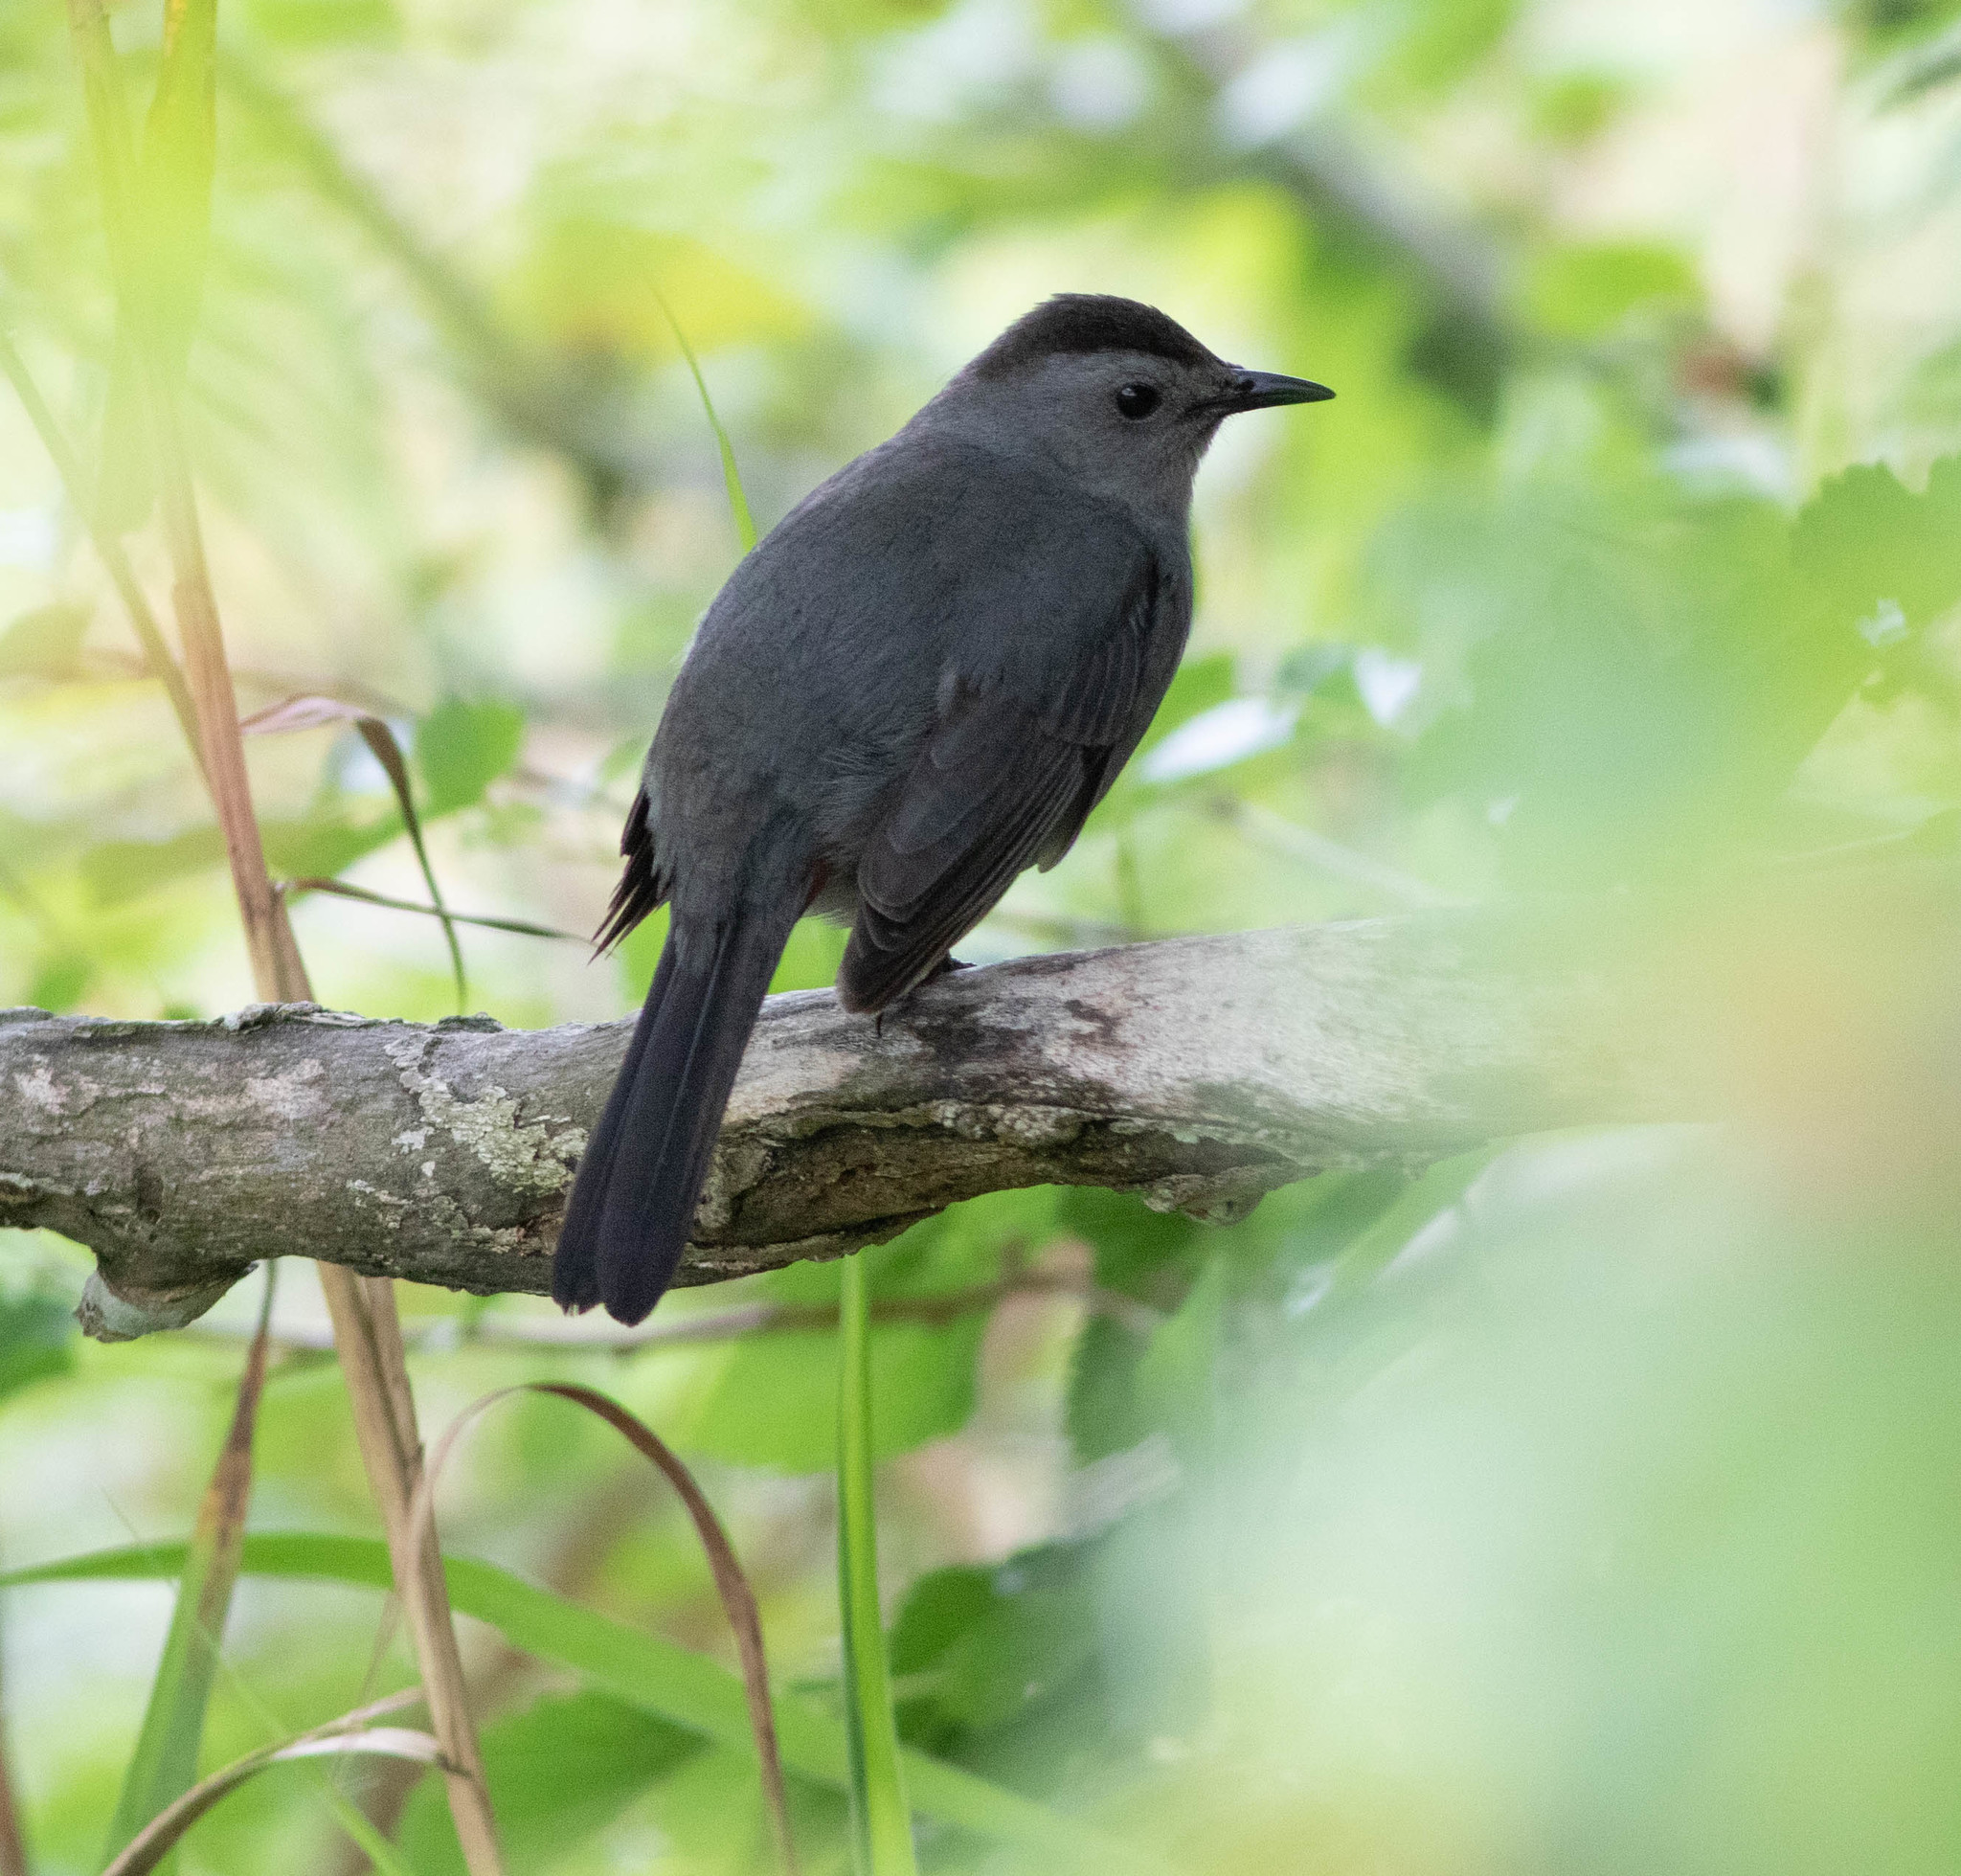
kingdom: Animalia
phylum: Chordata
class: Aves
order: Passeriformes
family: Mimidae
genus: Dumetella
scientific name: Dumetella carolinensis
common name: Gray catbird
